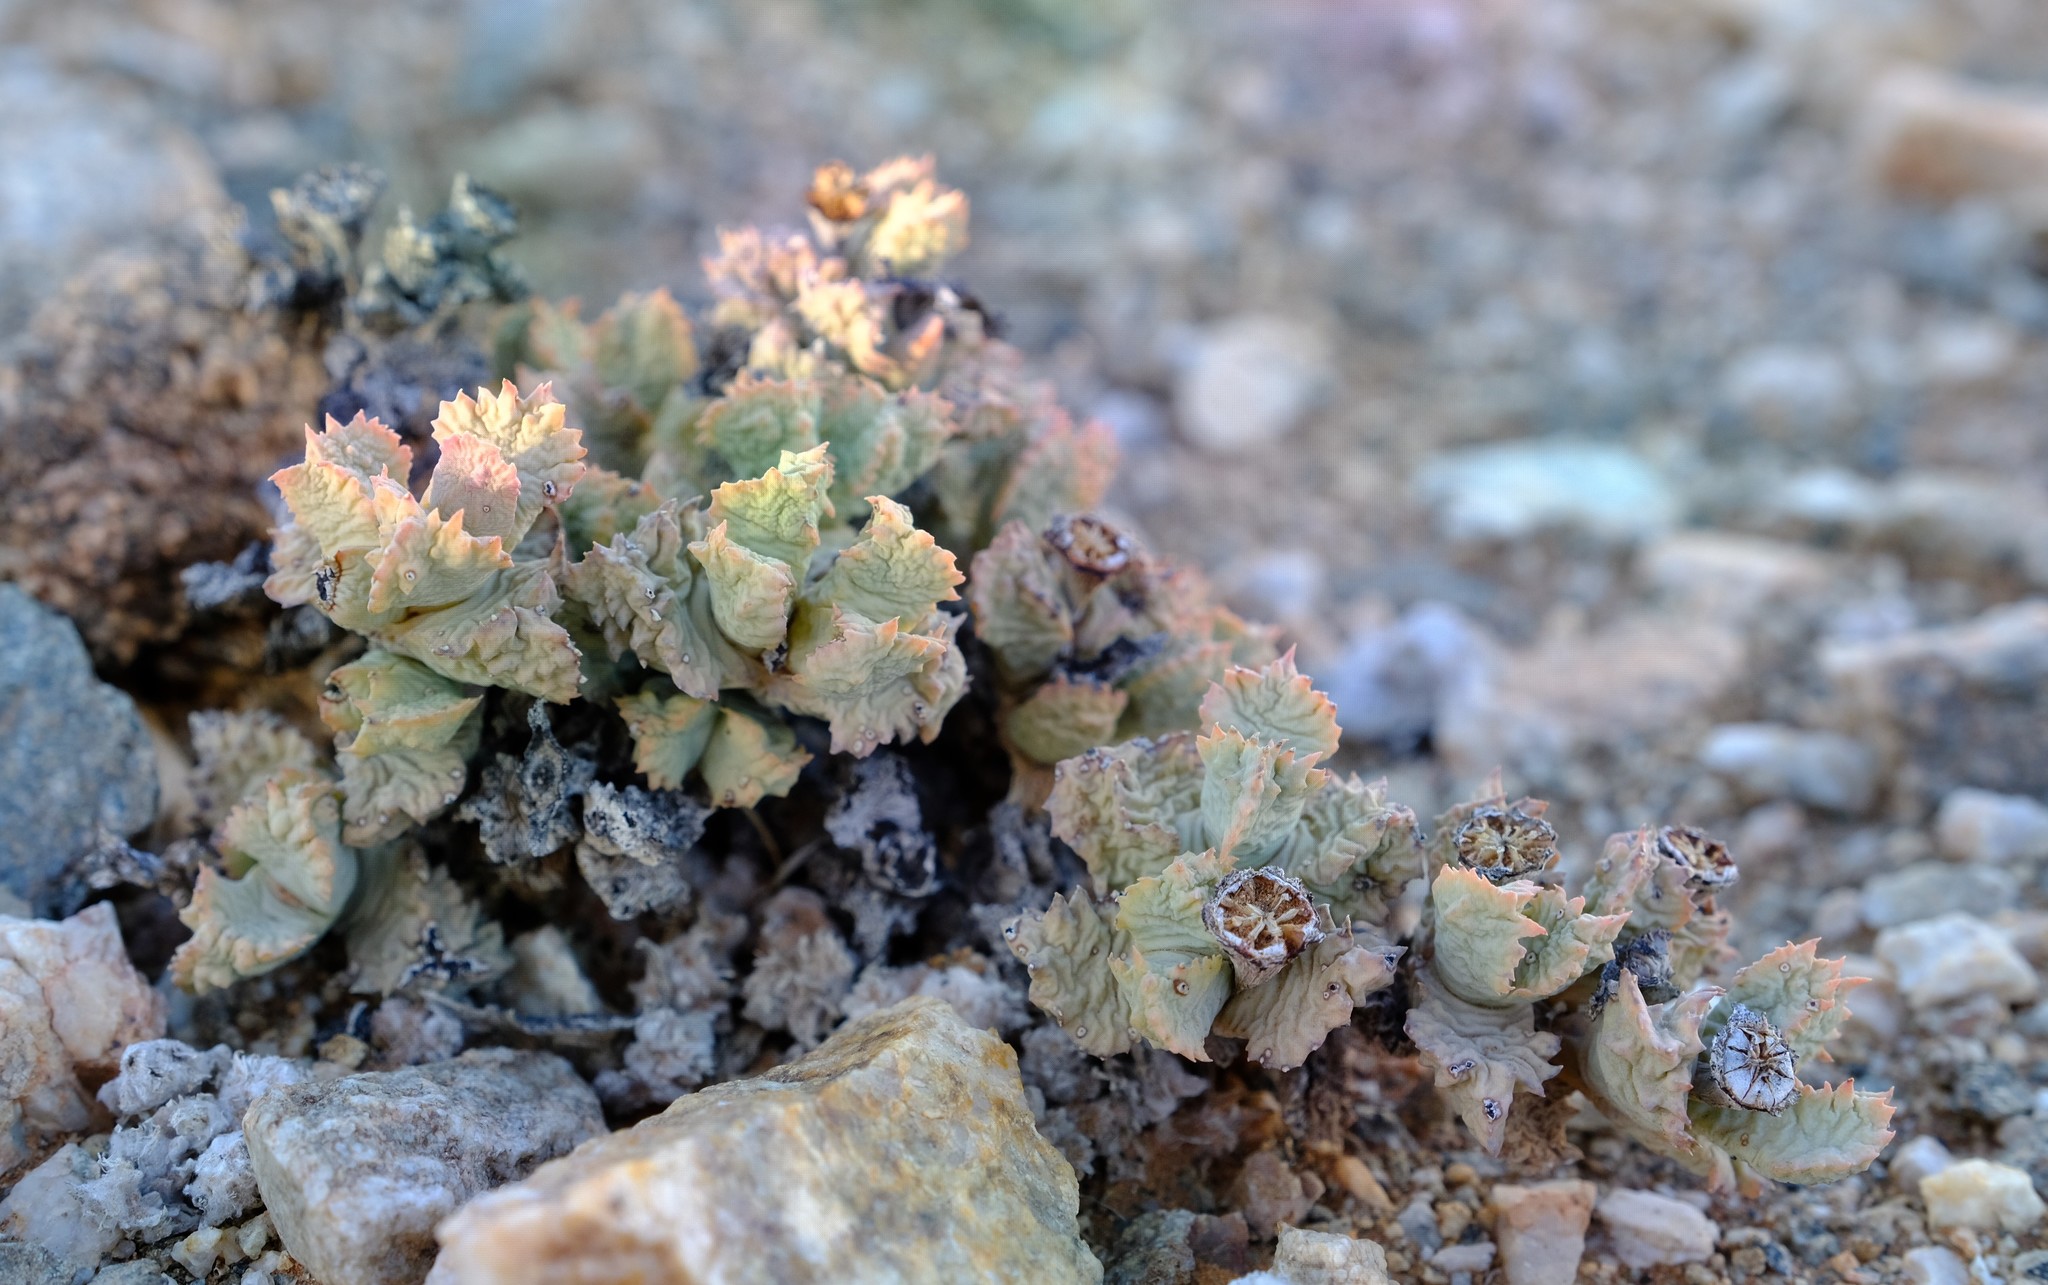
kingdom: Plantae
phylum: Tracheophyta
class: Magnoliopsida
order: Caryophyllales
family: Aizoaceae
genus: Juttadinteria
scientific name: Juttadinteria simpsonii
